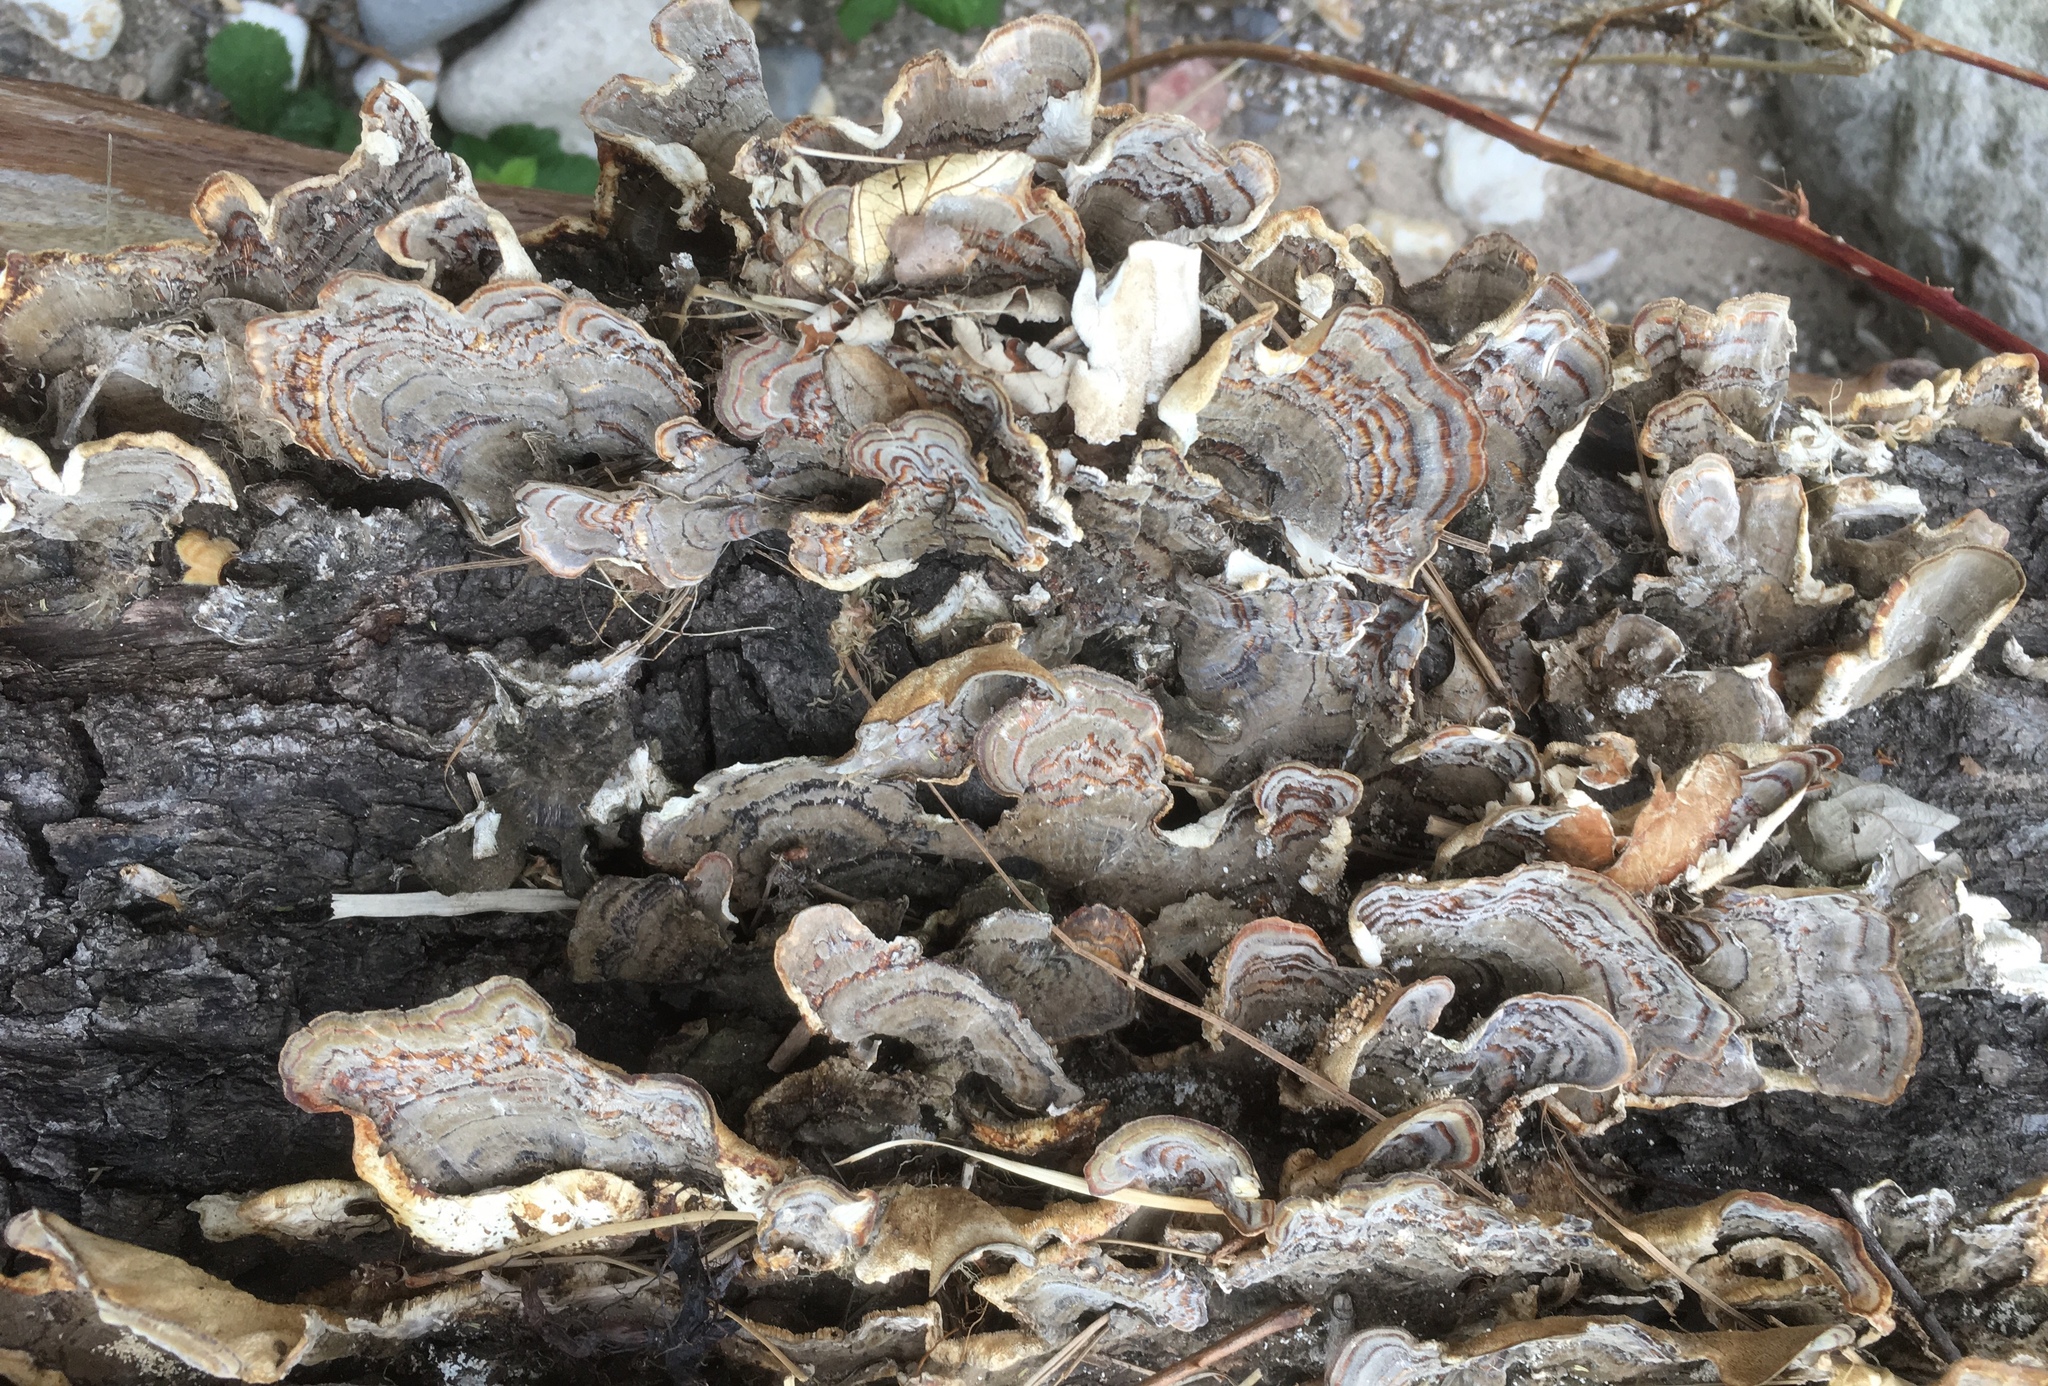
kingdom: Fungi
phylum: Basidiomycota
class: Agaricomycetes
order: Polyporales
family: Polyporaceae
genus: Trametes
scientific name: Trametes versicolor
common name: Turkeytail
